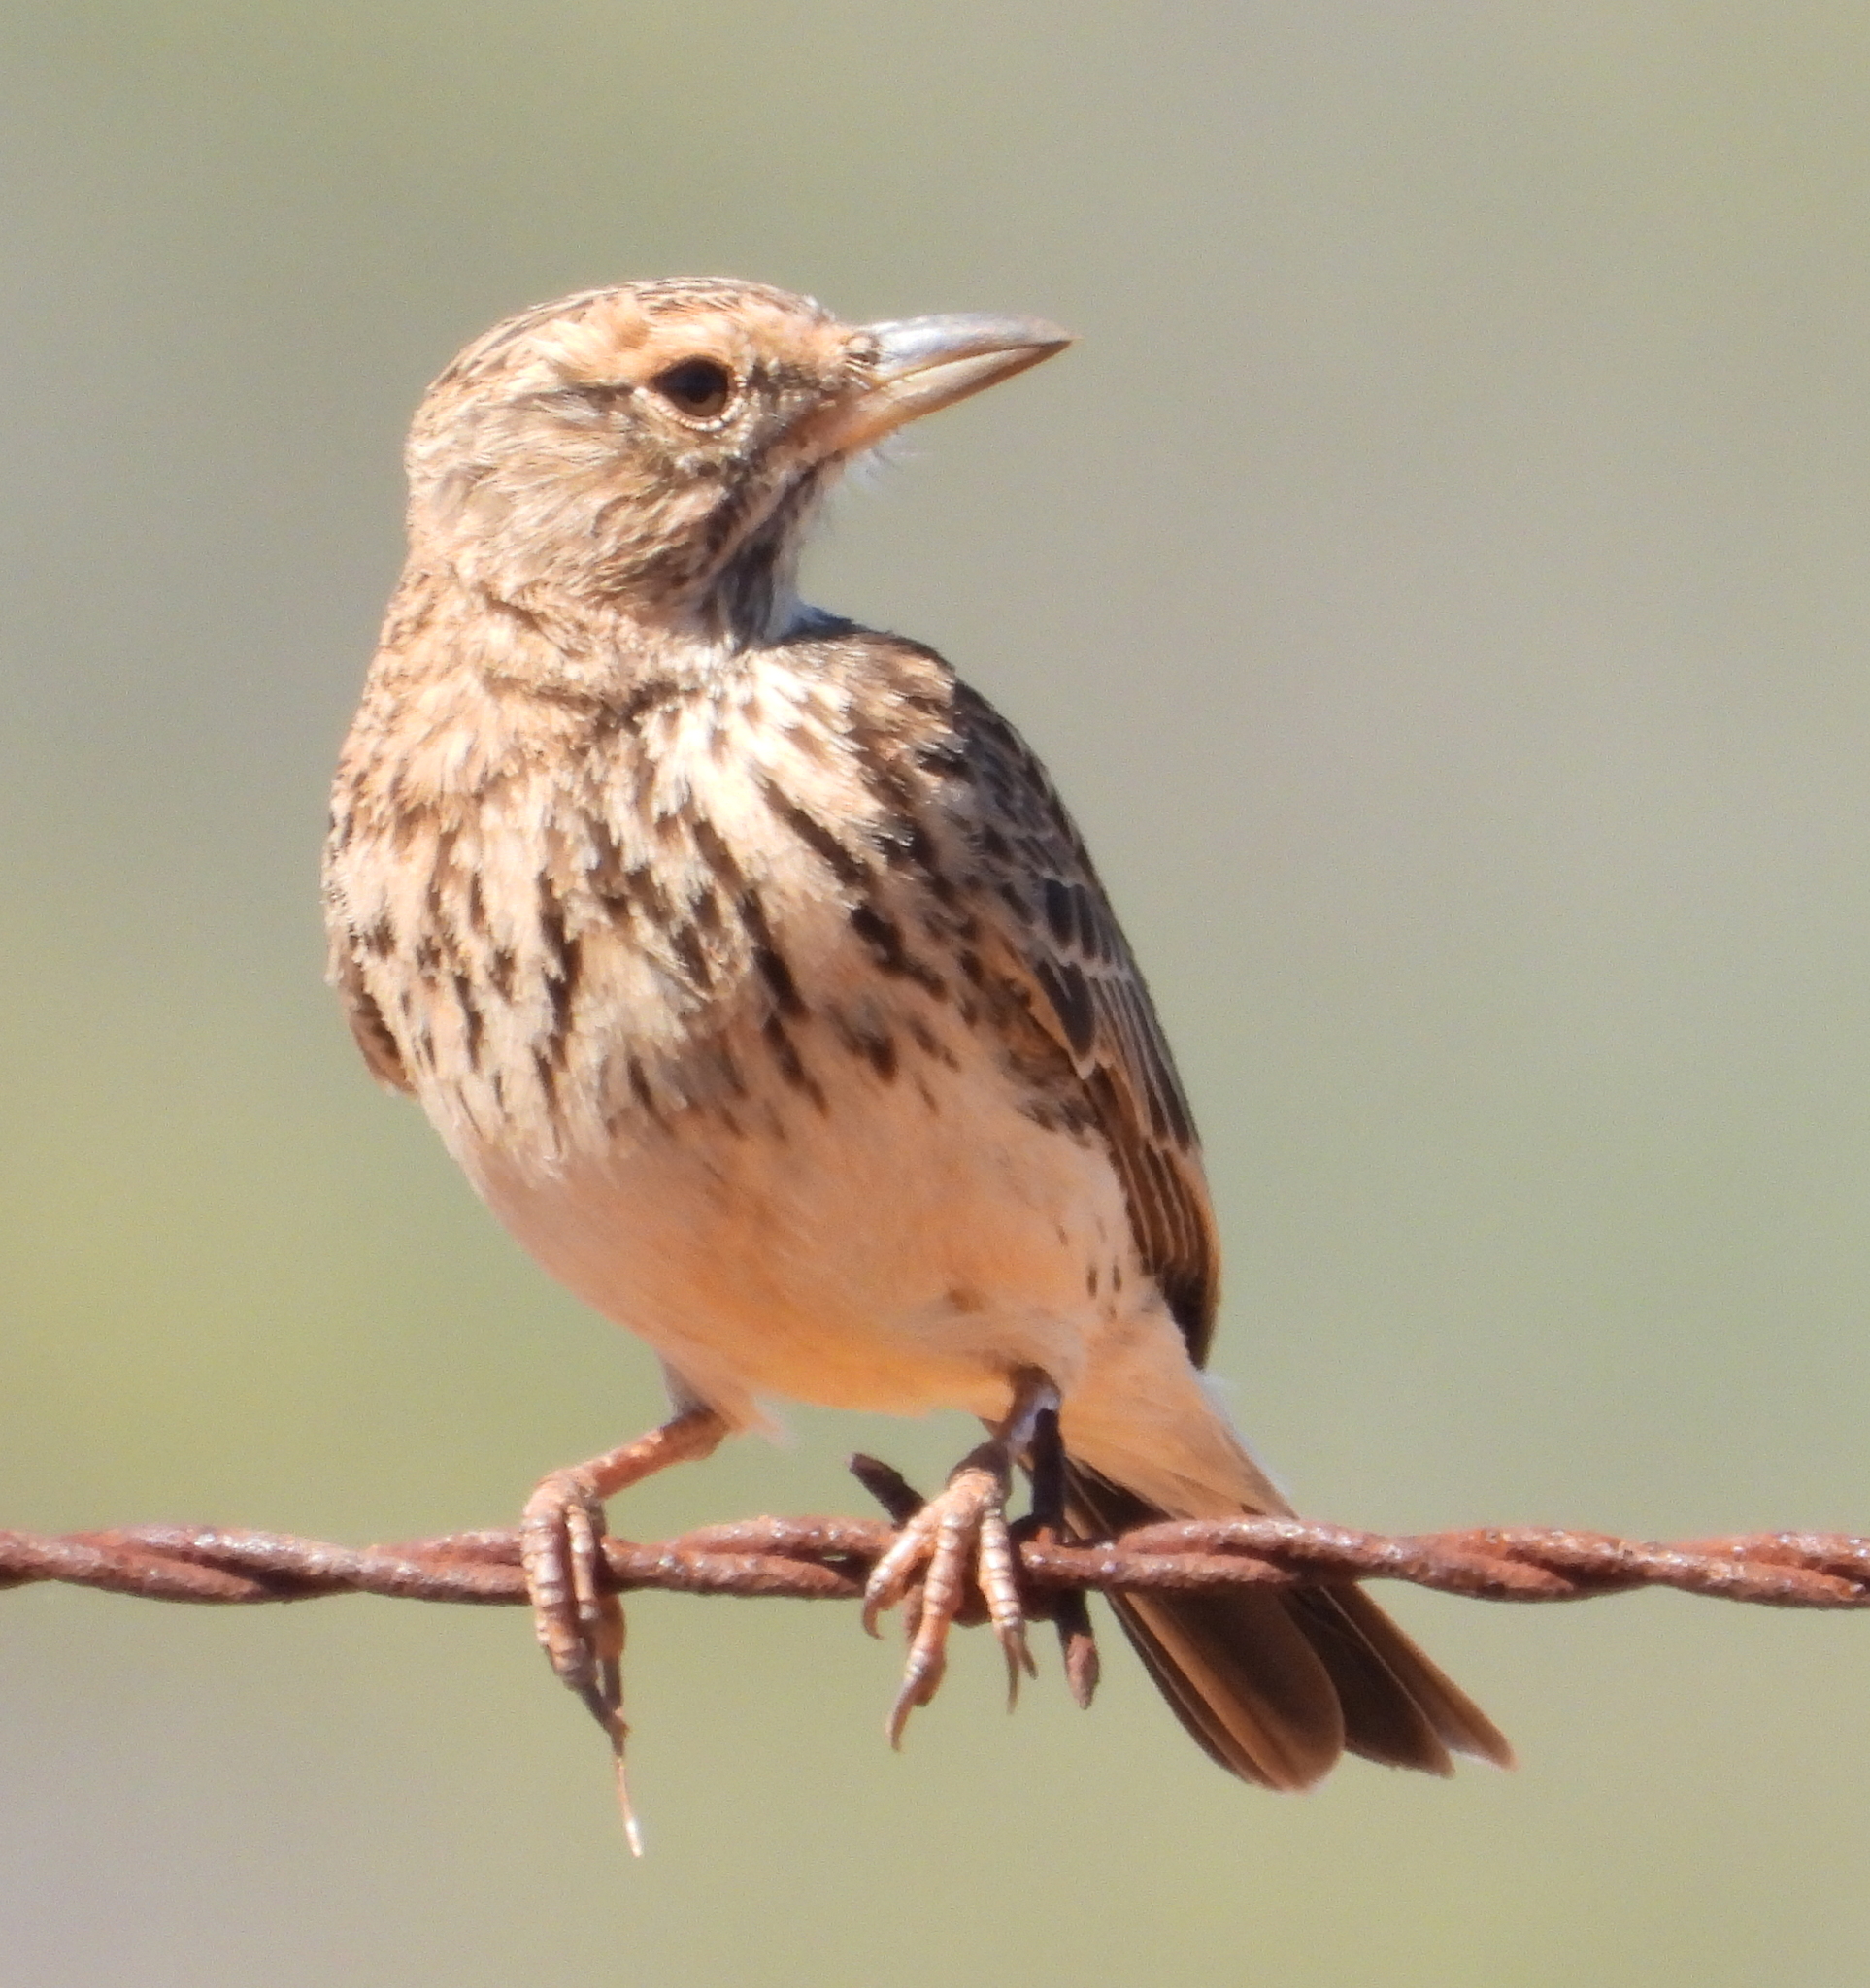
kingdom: Animalia
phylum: Chordata
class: Aves
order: Passeriformes
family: Alaudidae
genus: Galerida
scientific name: Galerida magnirostris
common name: Large-billed lark
